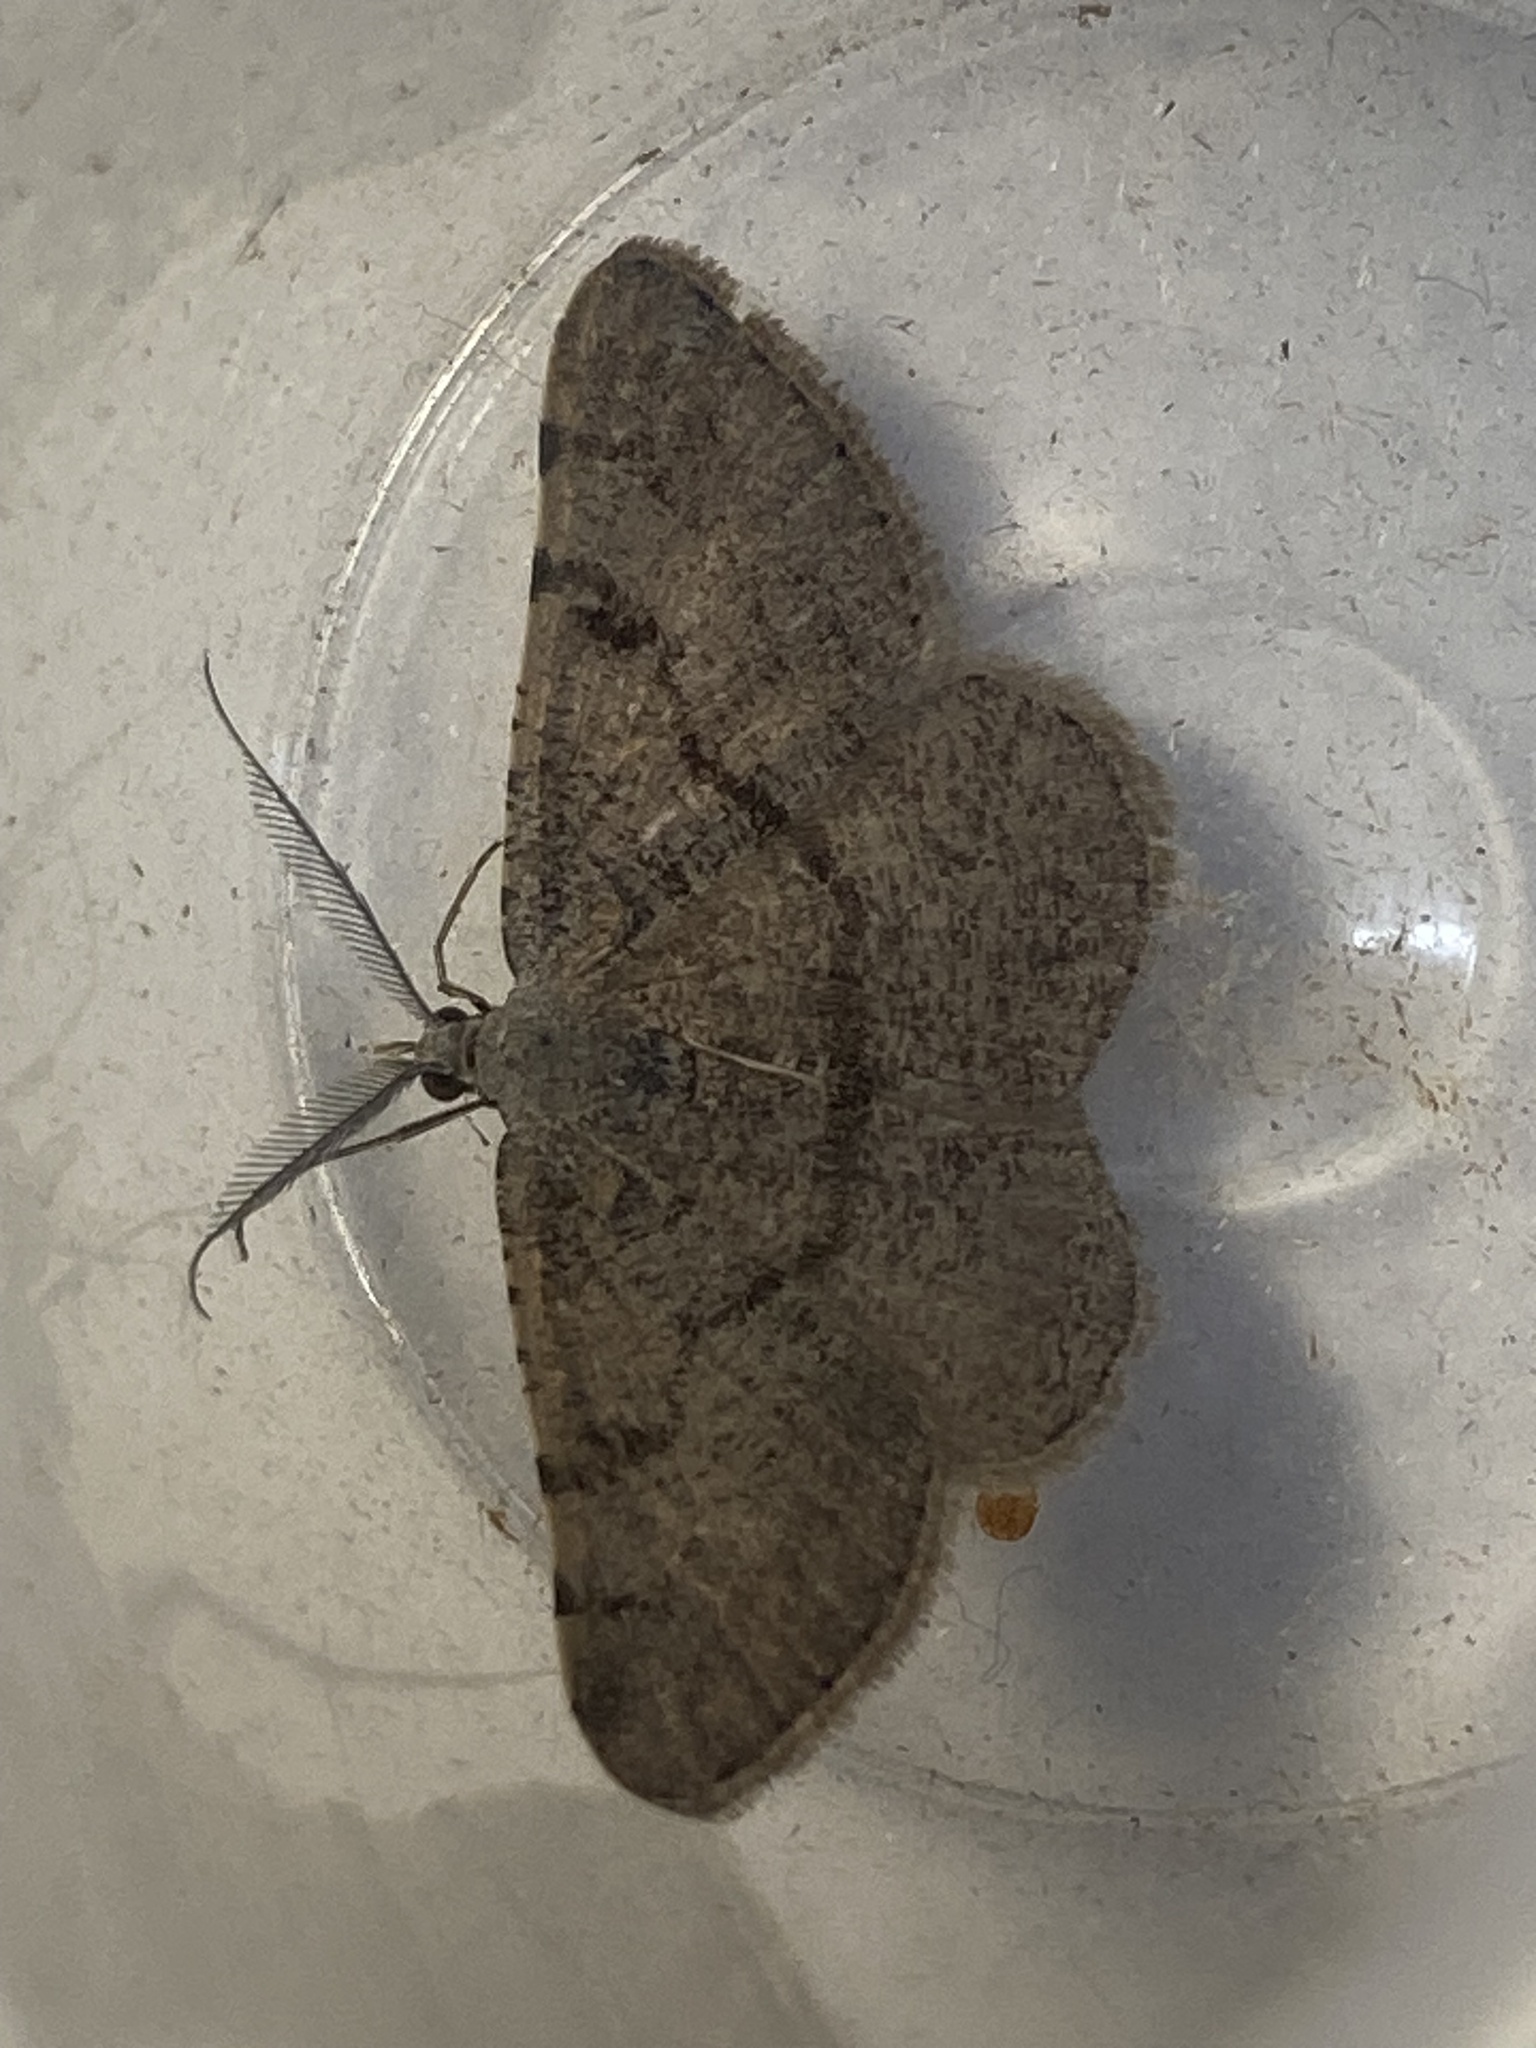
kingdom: Animalia
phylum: Arthropoda
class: Insecta
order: Lepidoptera
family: Geometridae
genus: Acanthovalva
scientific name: Acanthovalva inconspicuaria
